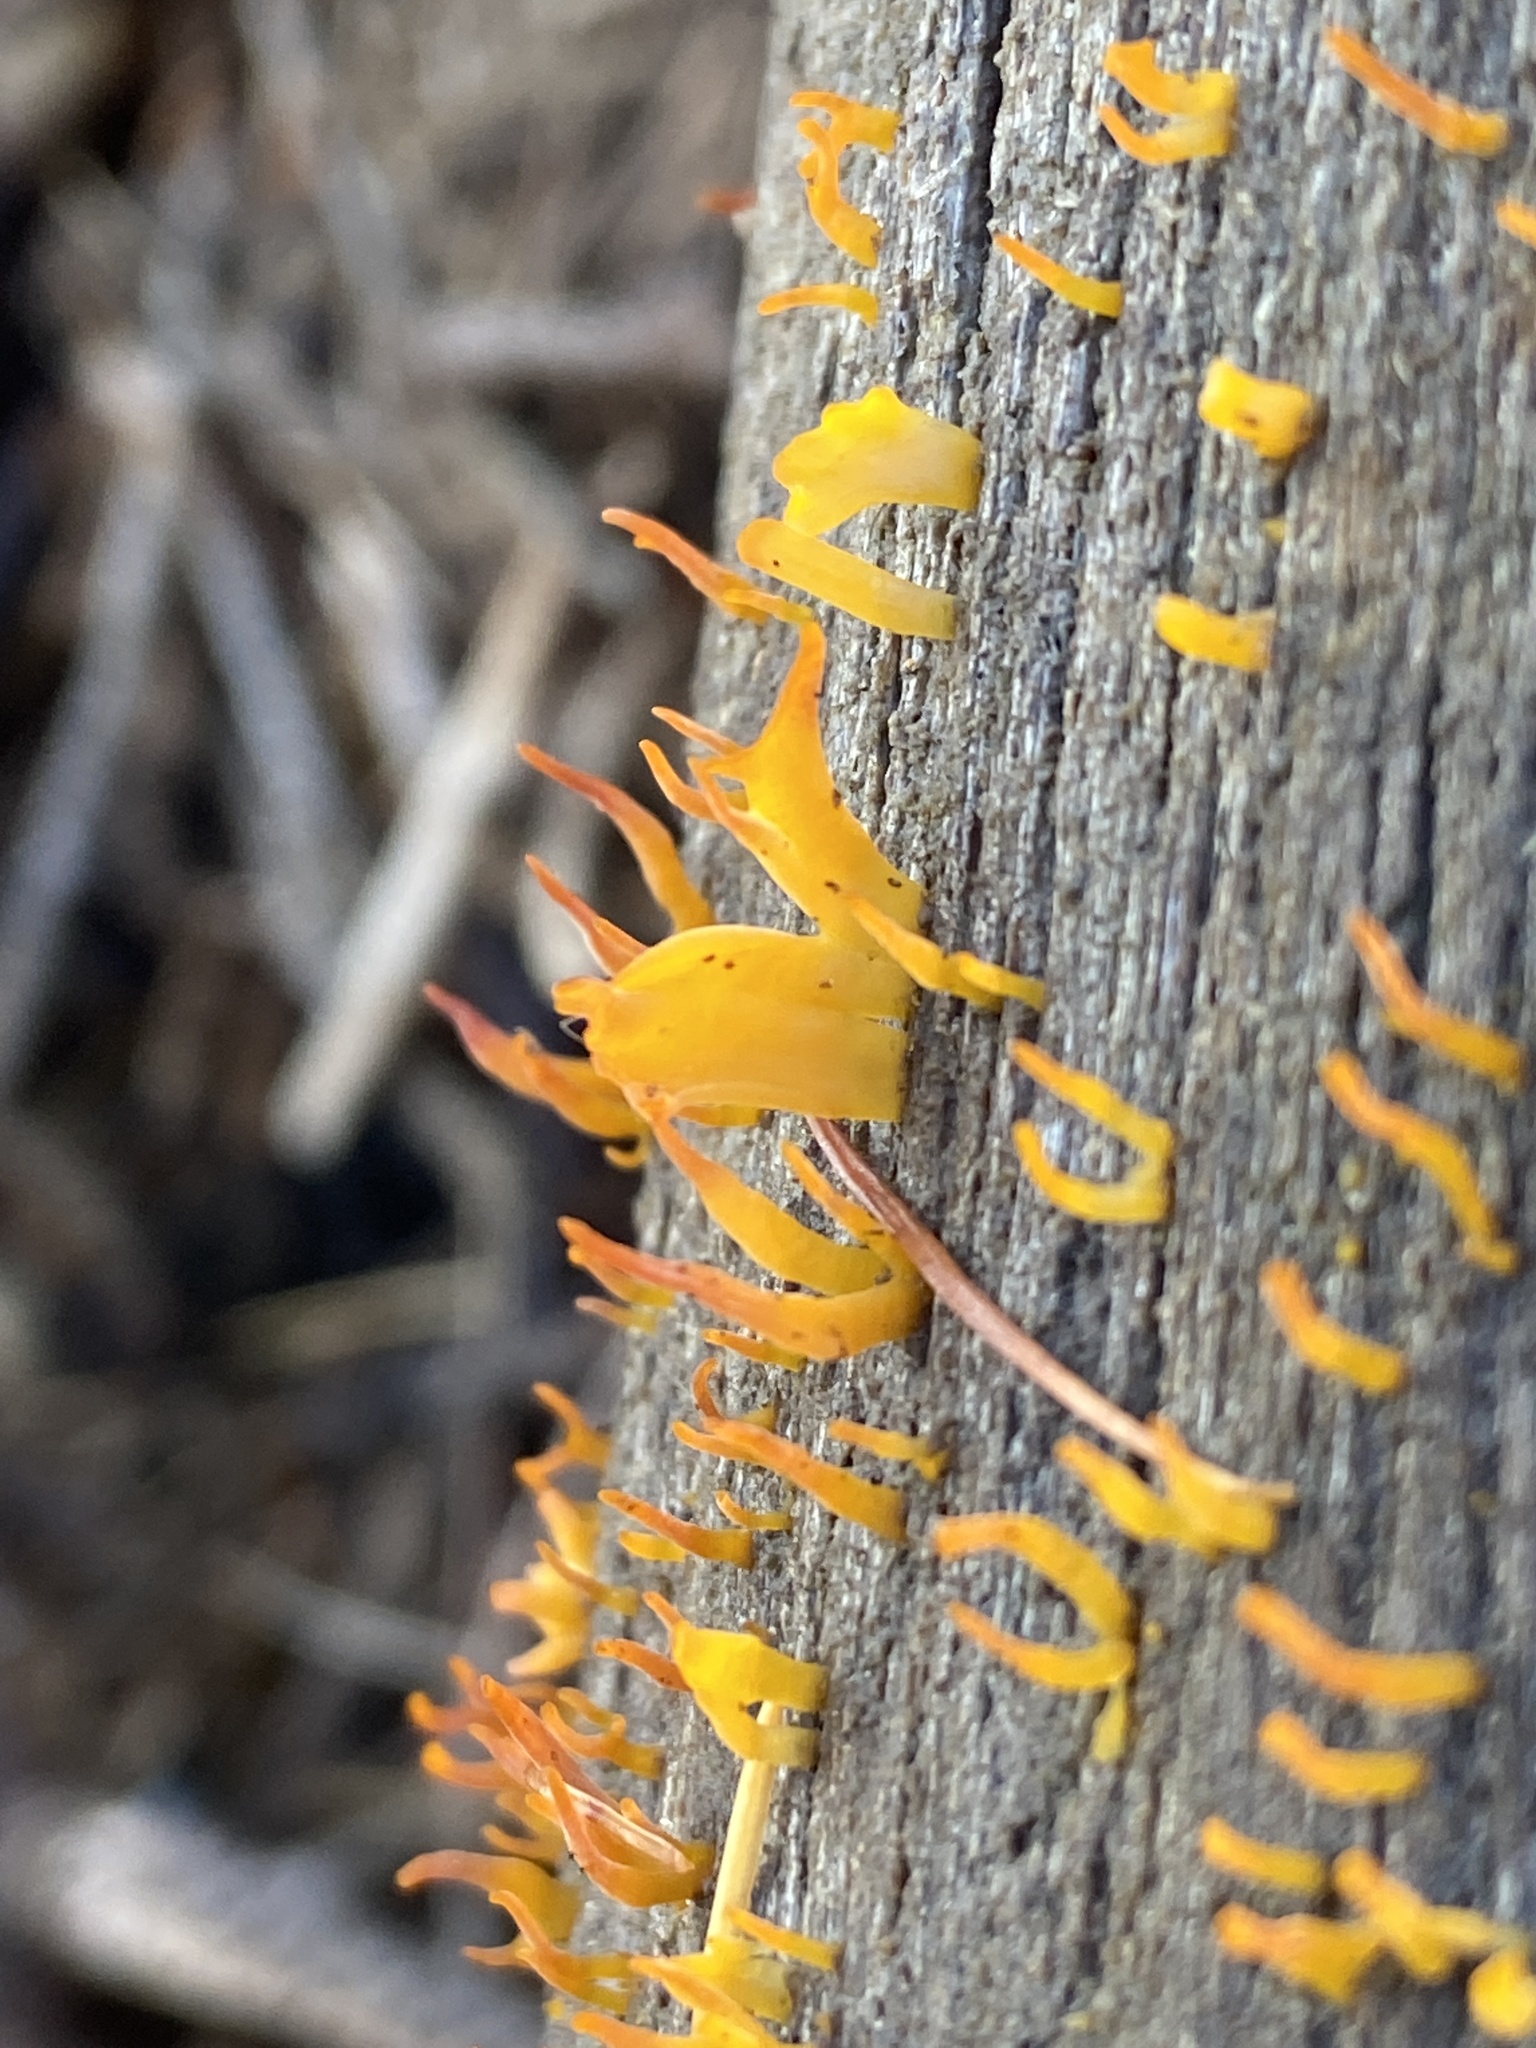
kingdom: Fungi
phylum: Basidiomycota
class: Dacrymycetes
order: Dacrymycetales
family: Dacrymycetaceae
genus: Calocera
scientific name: Calocera cornea
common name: Small stagshorn
